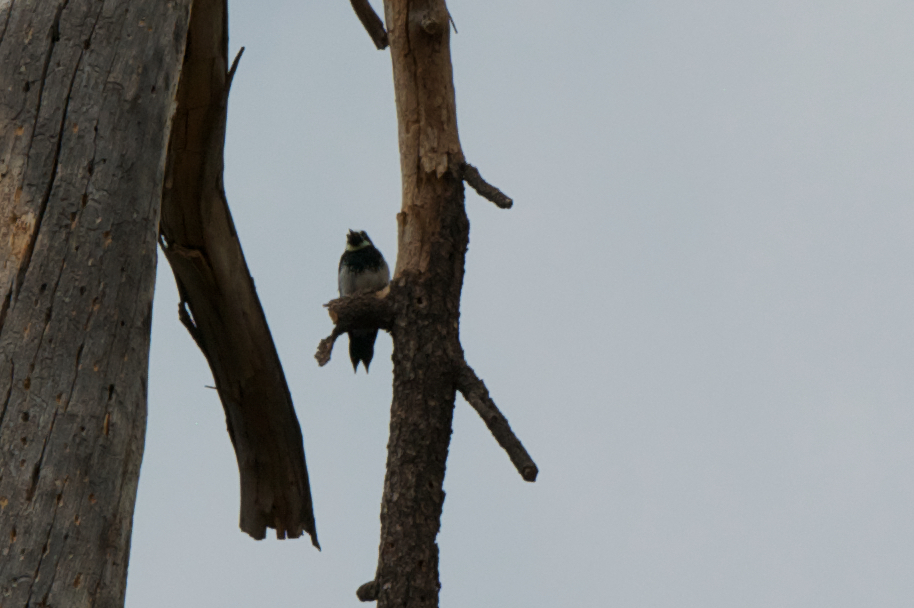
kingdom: Animalia
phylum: Chordata
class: Aves
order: Piciformes
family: Picidae
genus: Melanerpes
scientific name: Melanerpes formicivorus
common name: Acorn woodpecker
